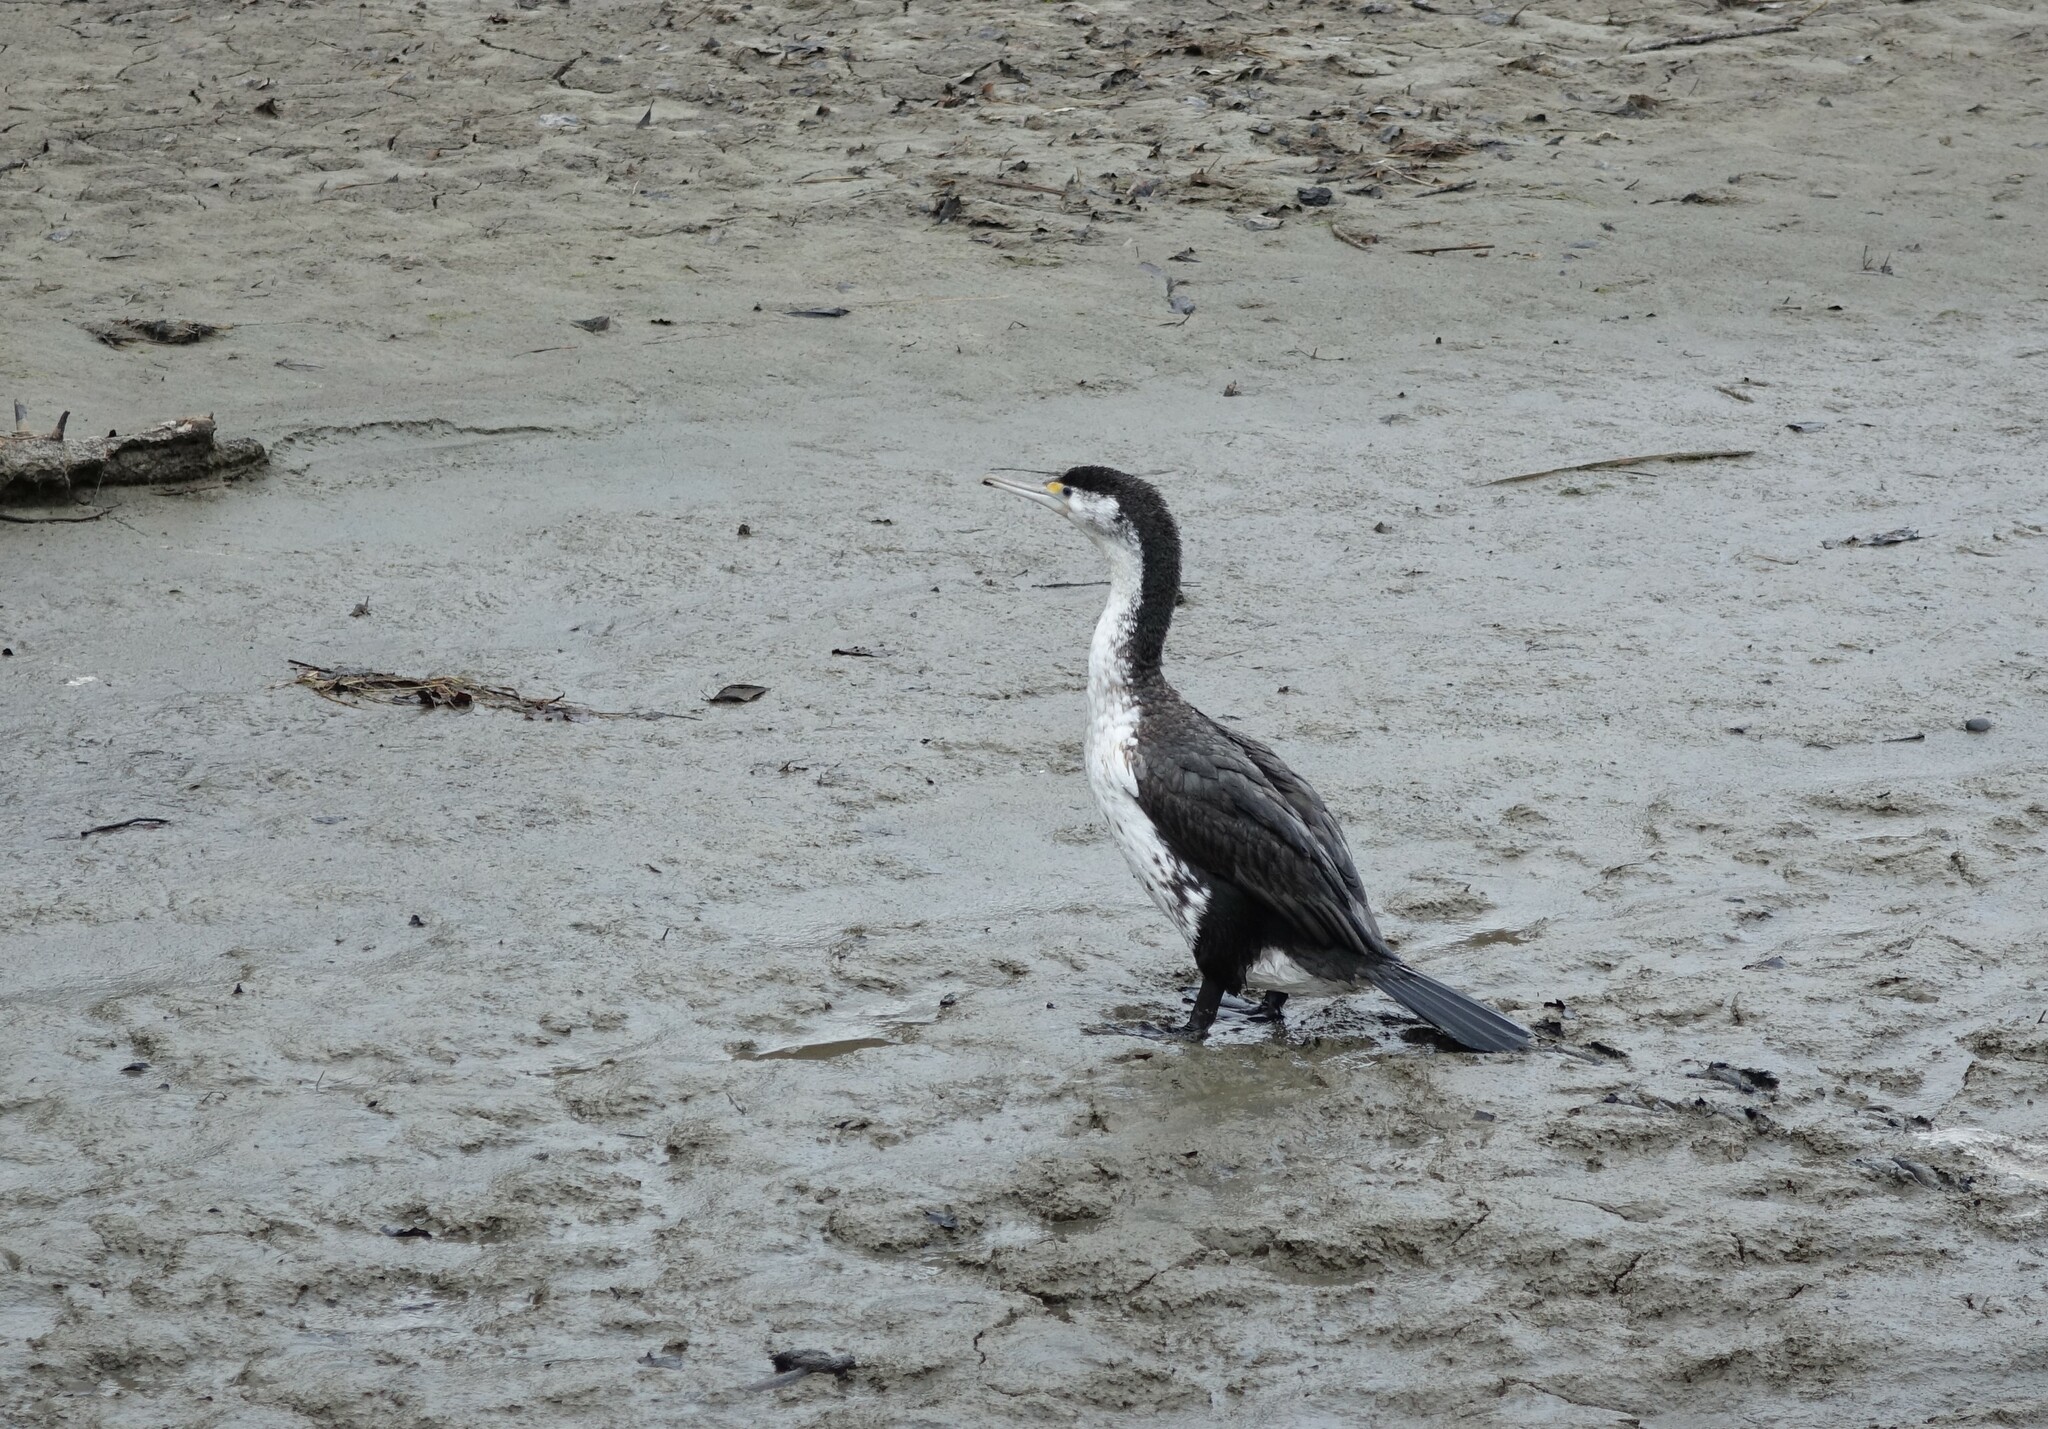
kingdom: Animalia
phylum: Chordata
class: Aves
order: Suliformes
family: Phalacrocoracidae
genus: Phalacrocorax
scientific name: Phalacrocorax varius
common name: Pied cormorant
